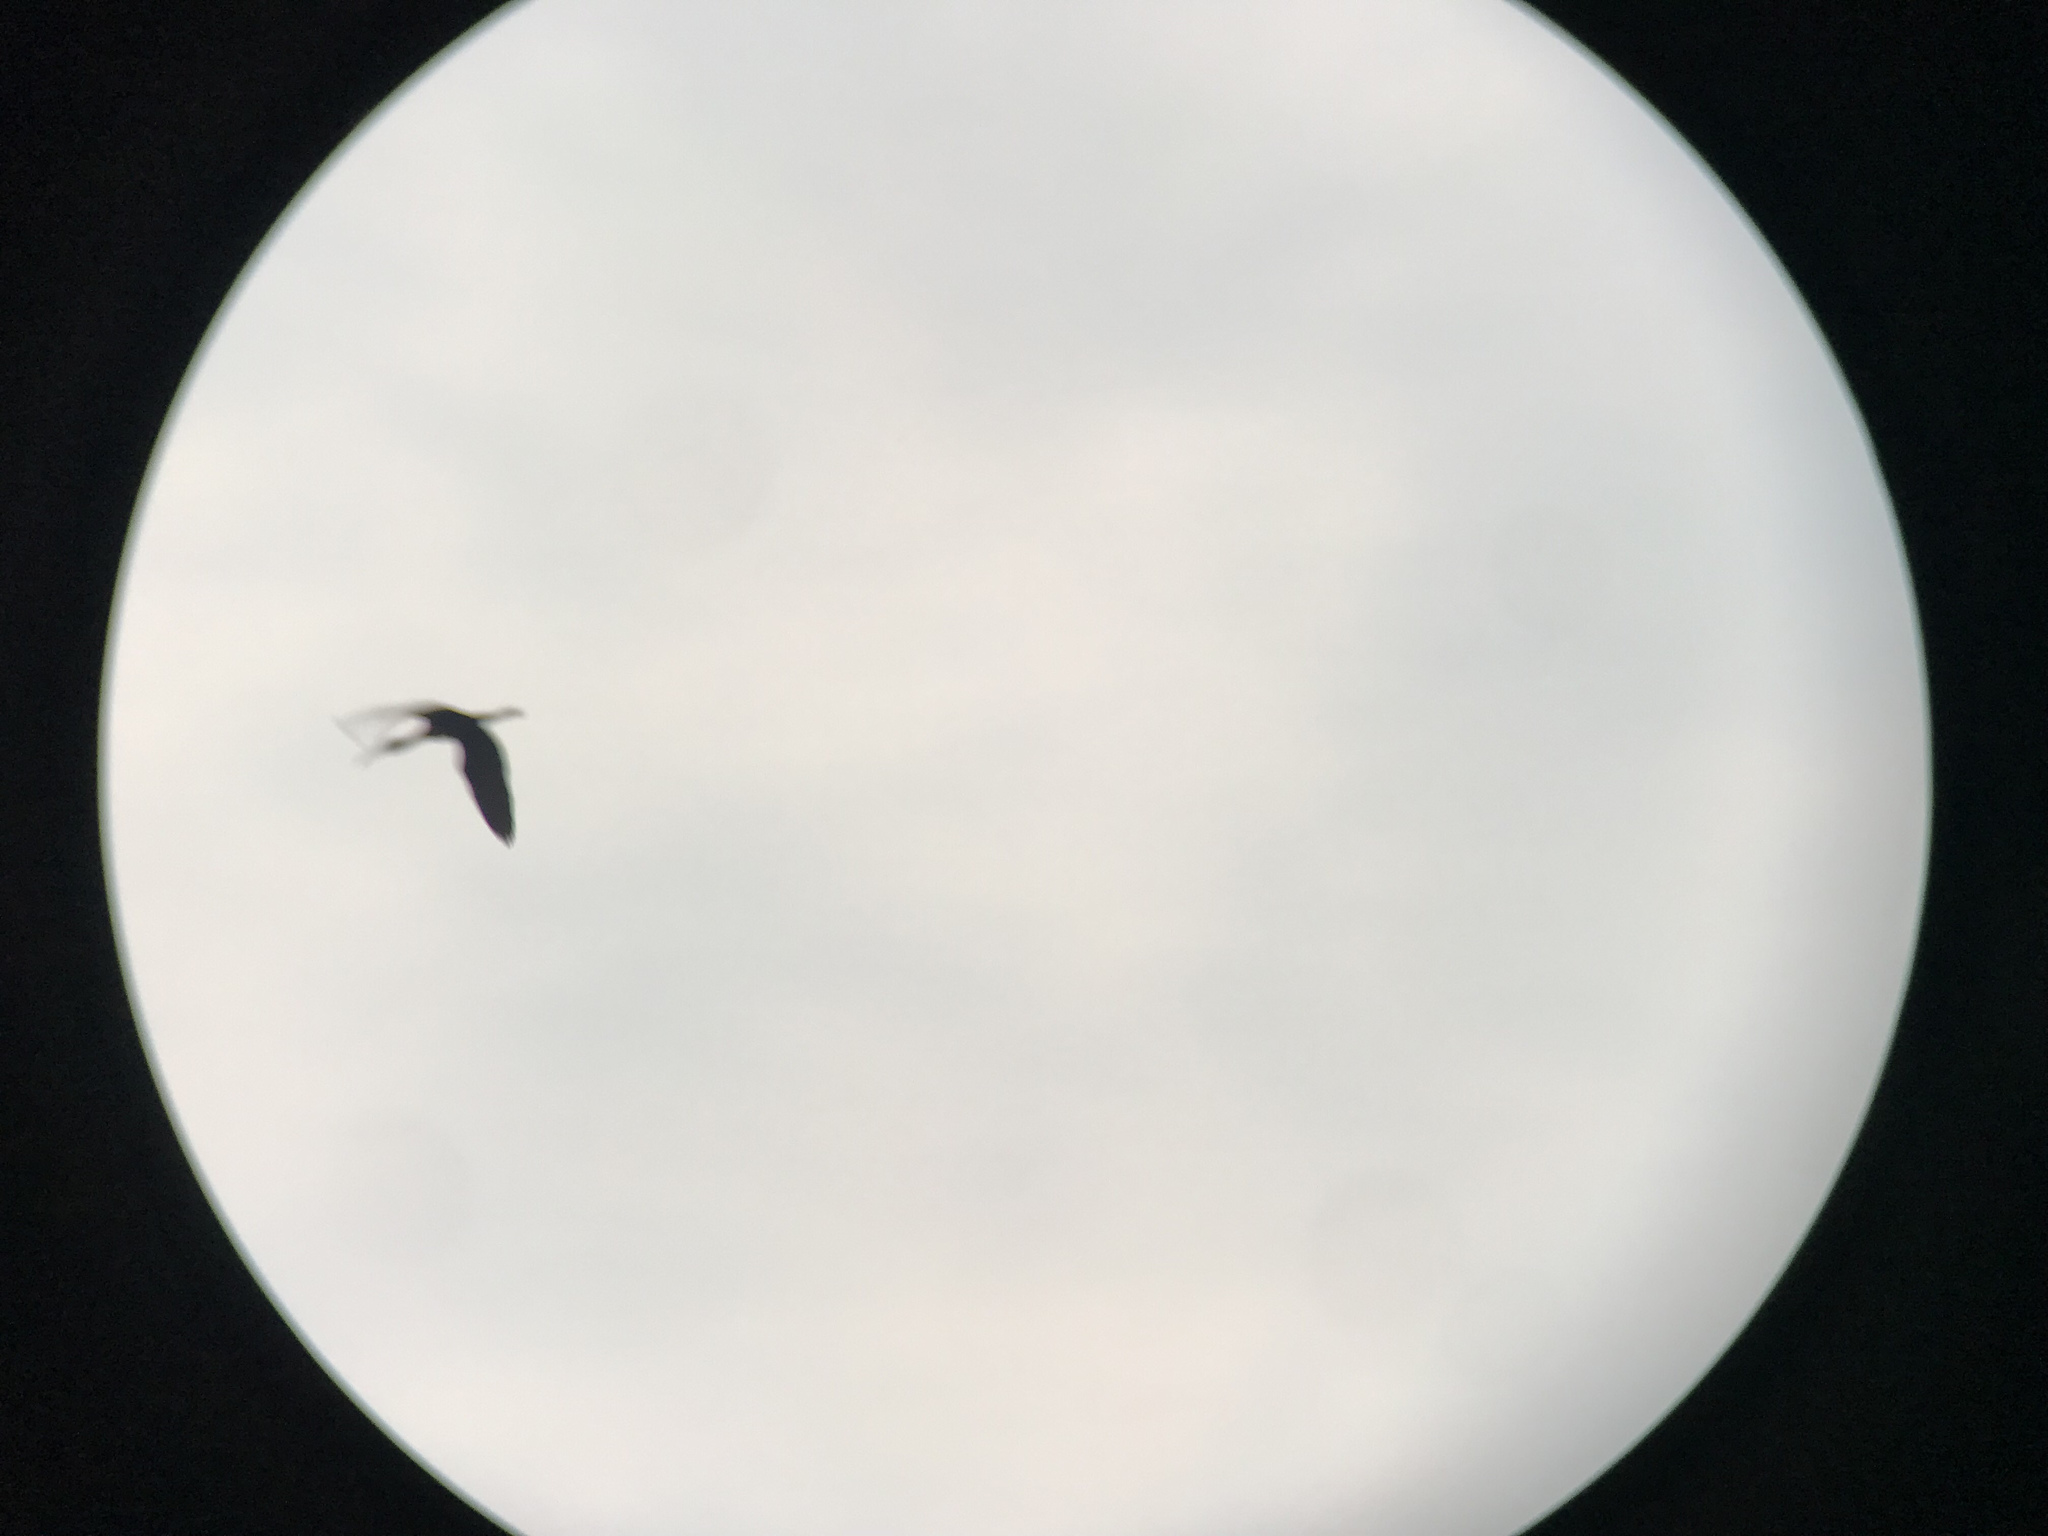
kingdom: Animalia
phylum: Chordata
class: Aves
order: Pelecaniformes
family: Threskiornithidae
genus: Plegadis
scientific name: Plegadis falcinellus
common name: Glossy ibis
